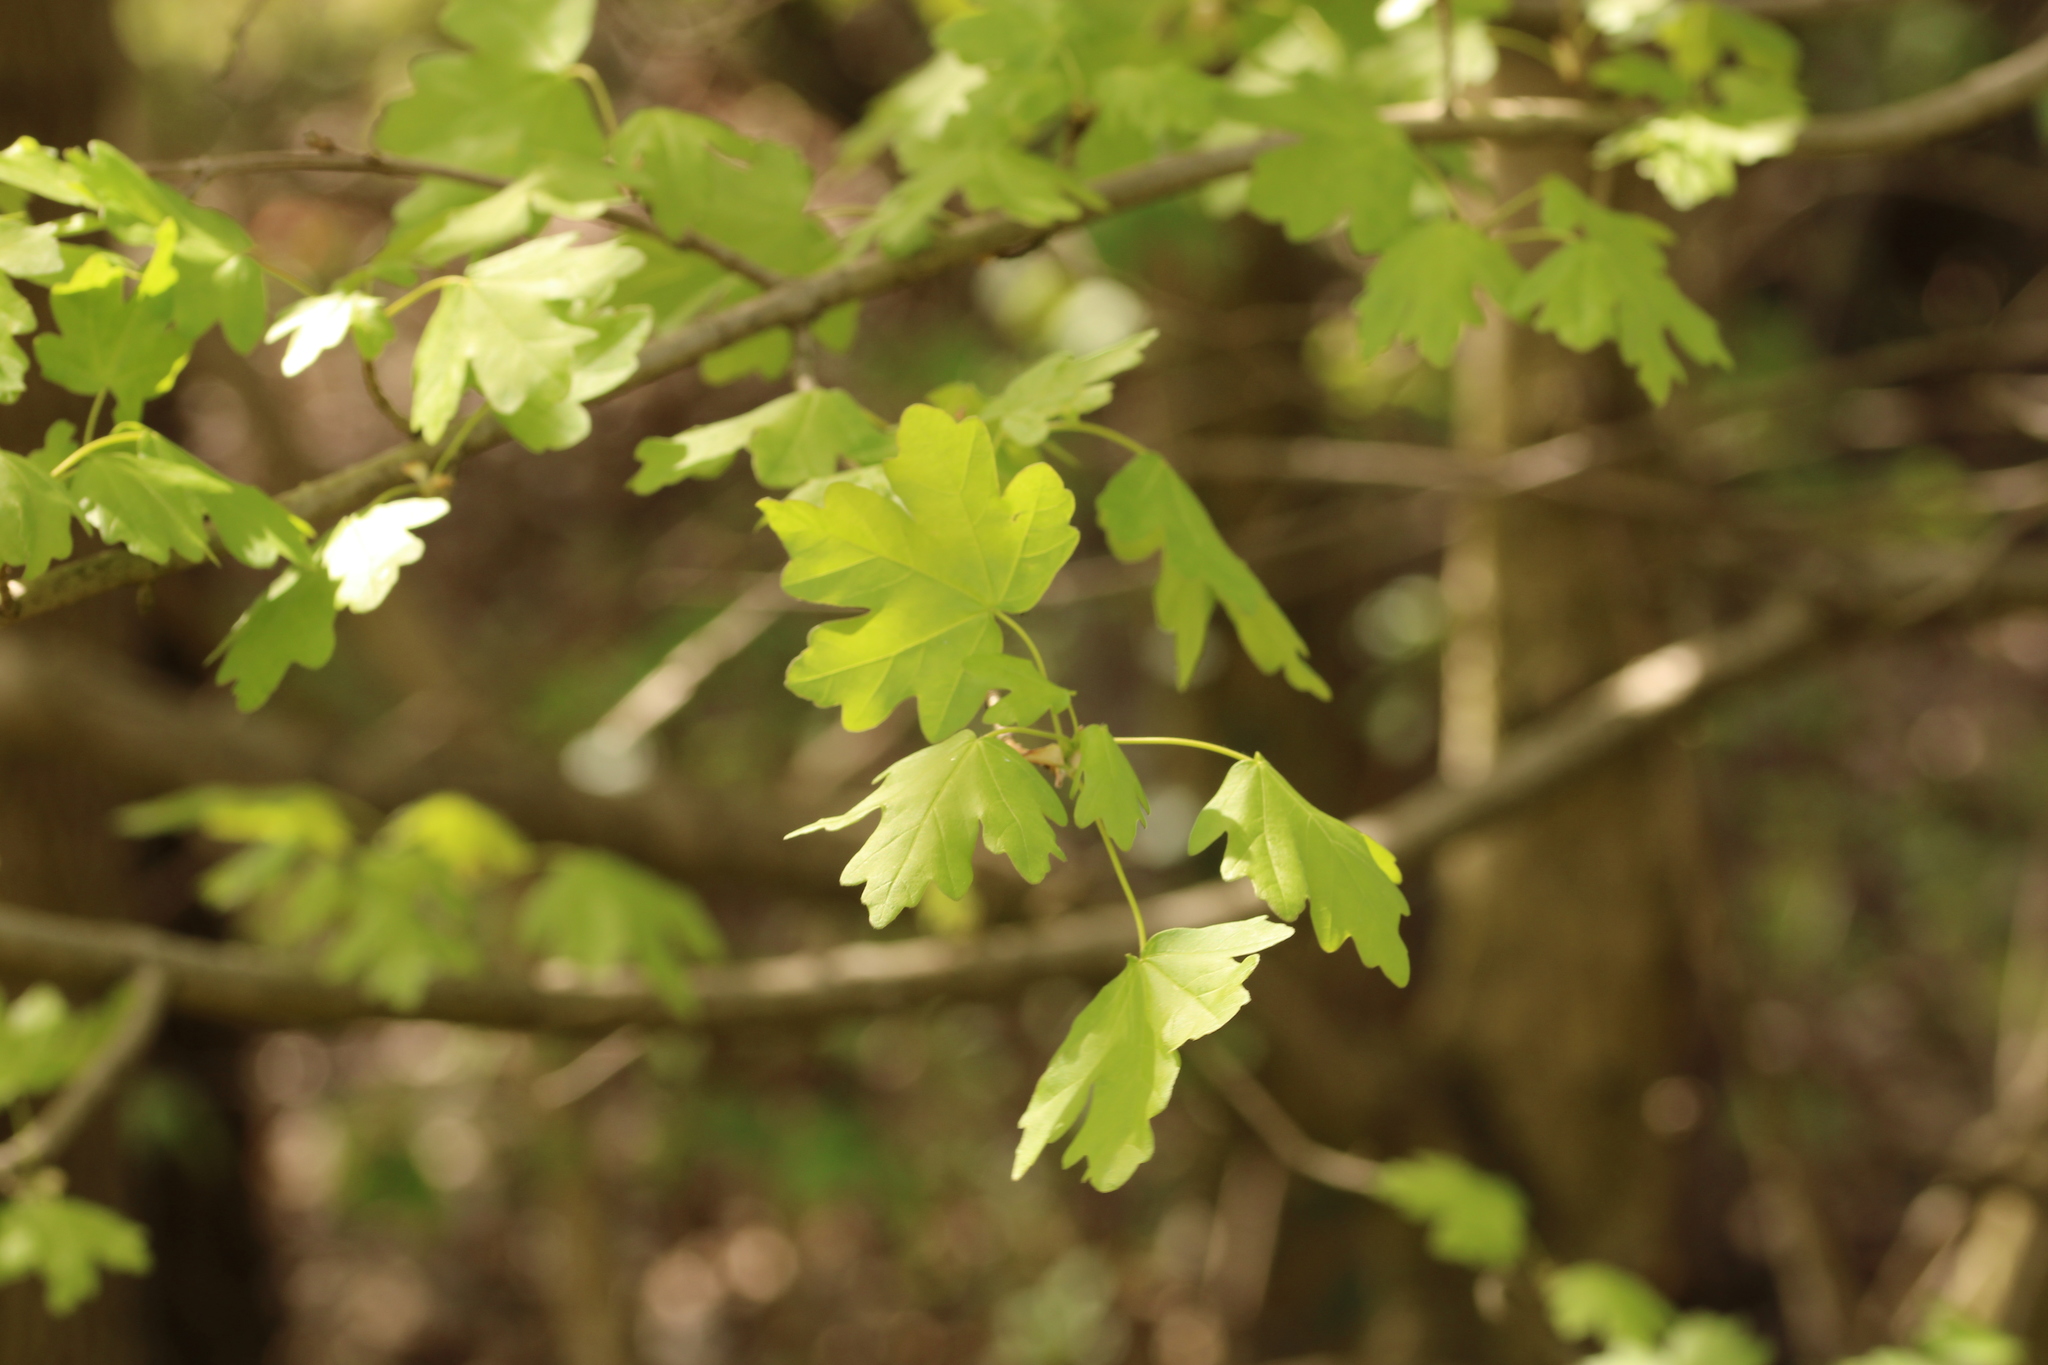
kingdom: Plantae
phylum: Tracheophyta
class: Magnoliopsida
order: Sapindales
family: Sapindaceae
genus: Acer
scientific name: Acer campestre
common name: Field maple
